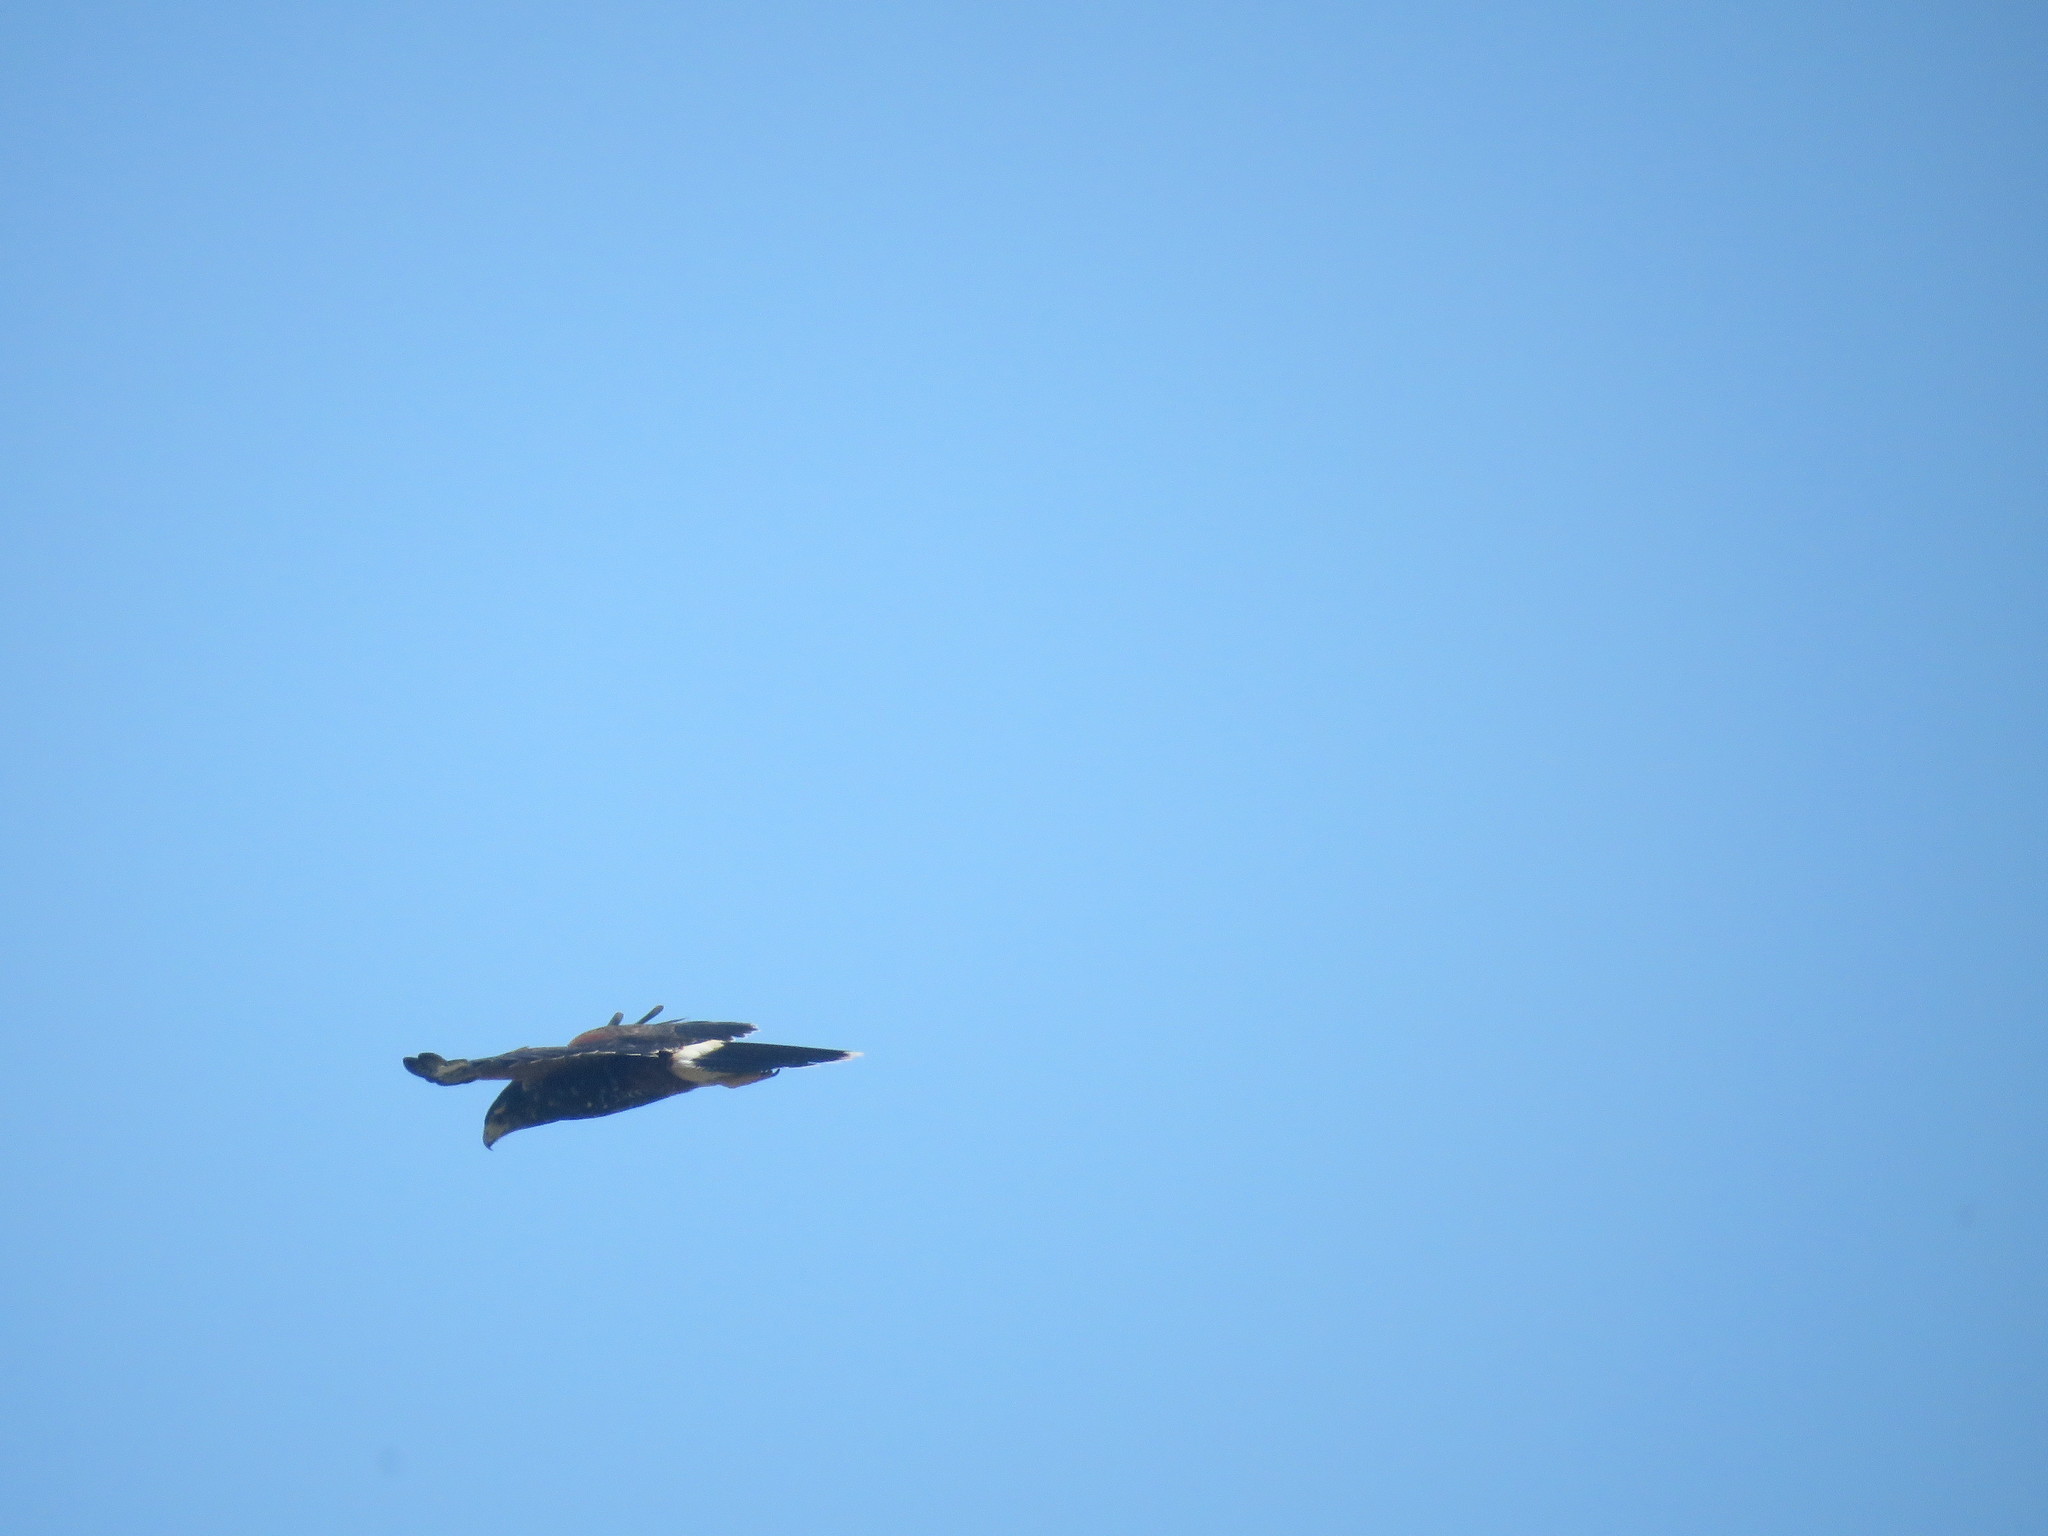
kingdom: Animalia
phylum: Chordata
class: Aves
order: Accipitriformes
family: Accipitridae
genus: Parabuteo
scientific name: Parabuteo unicinctus
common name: Harris's hawk
